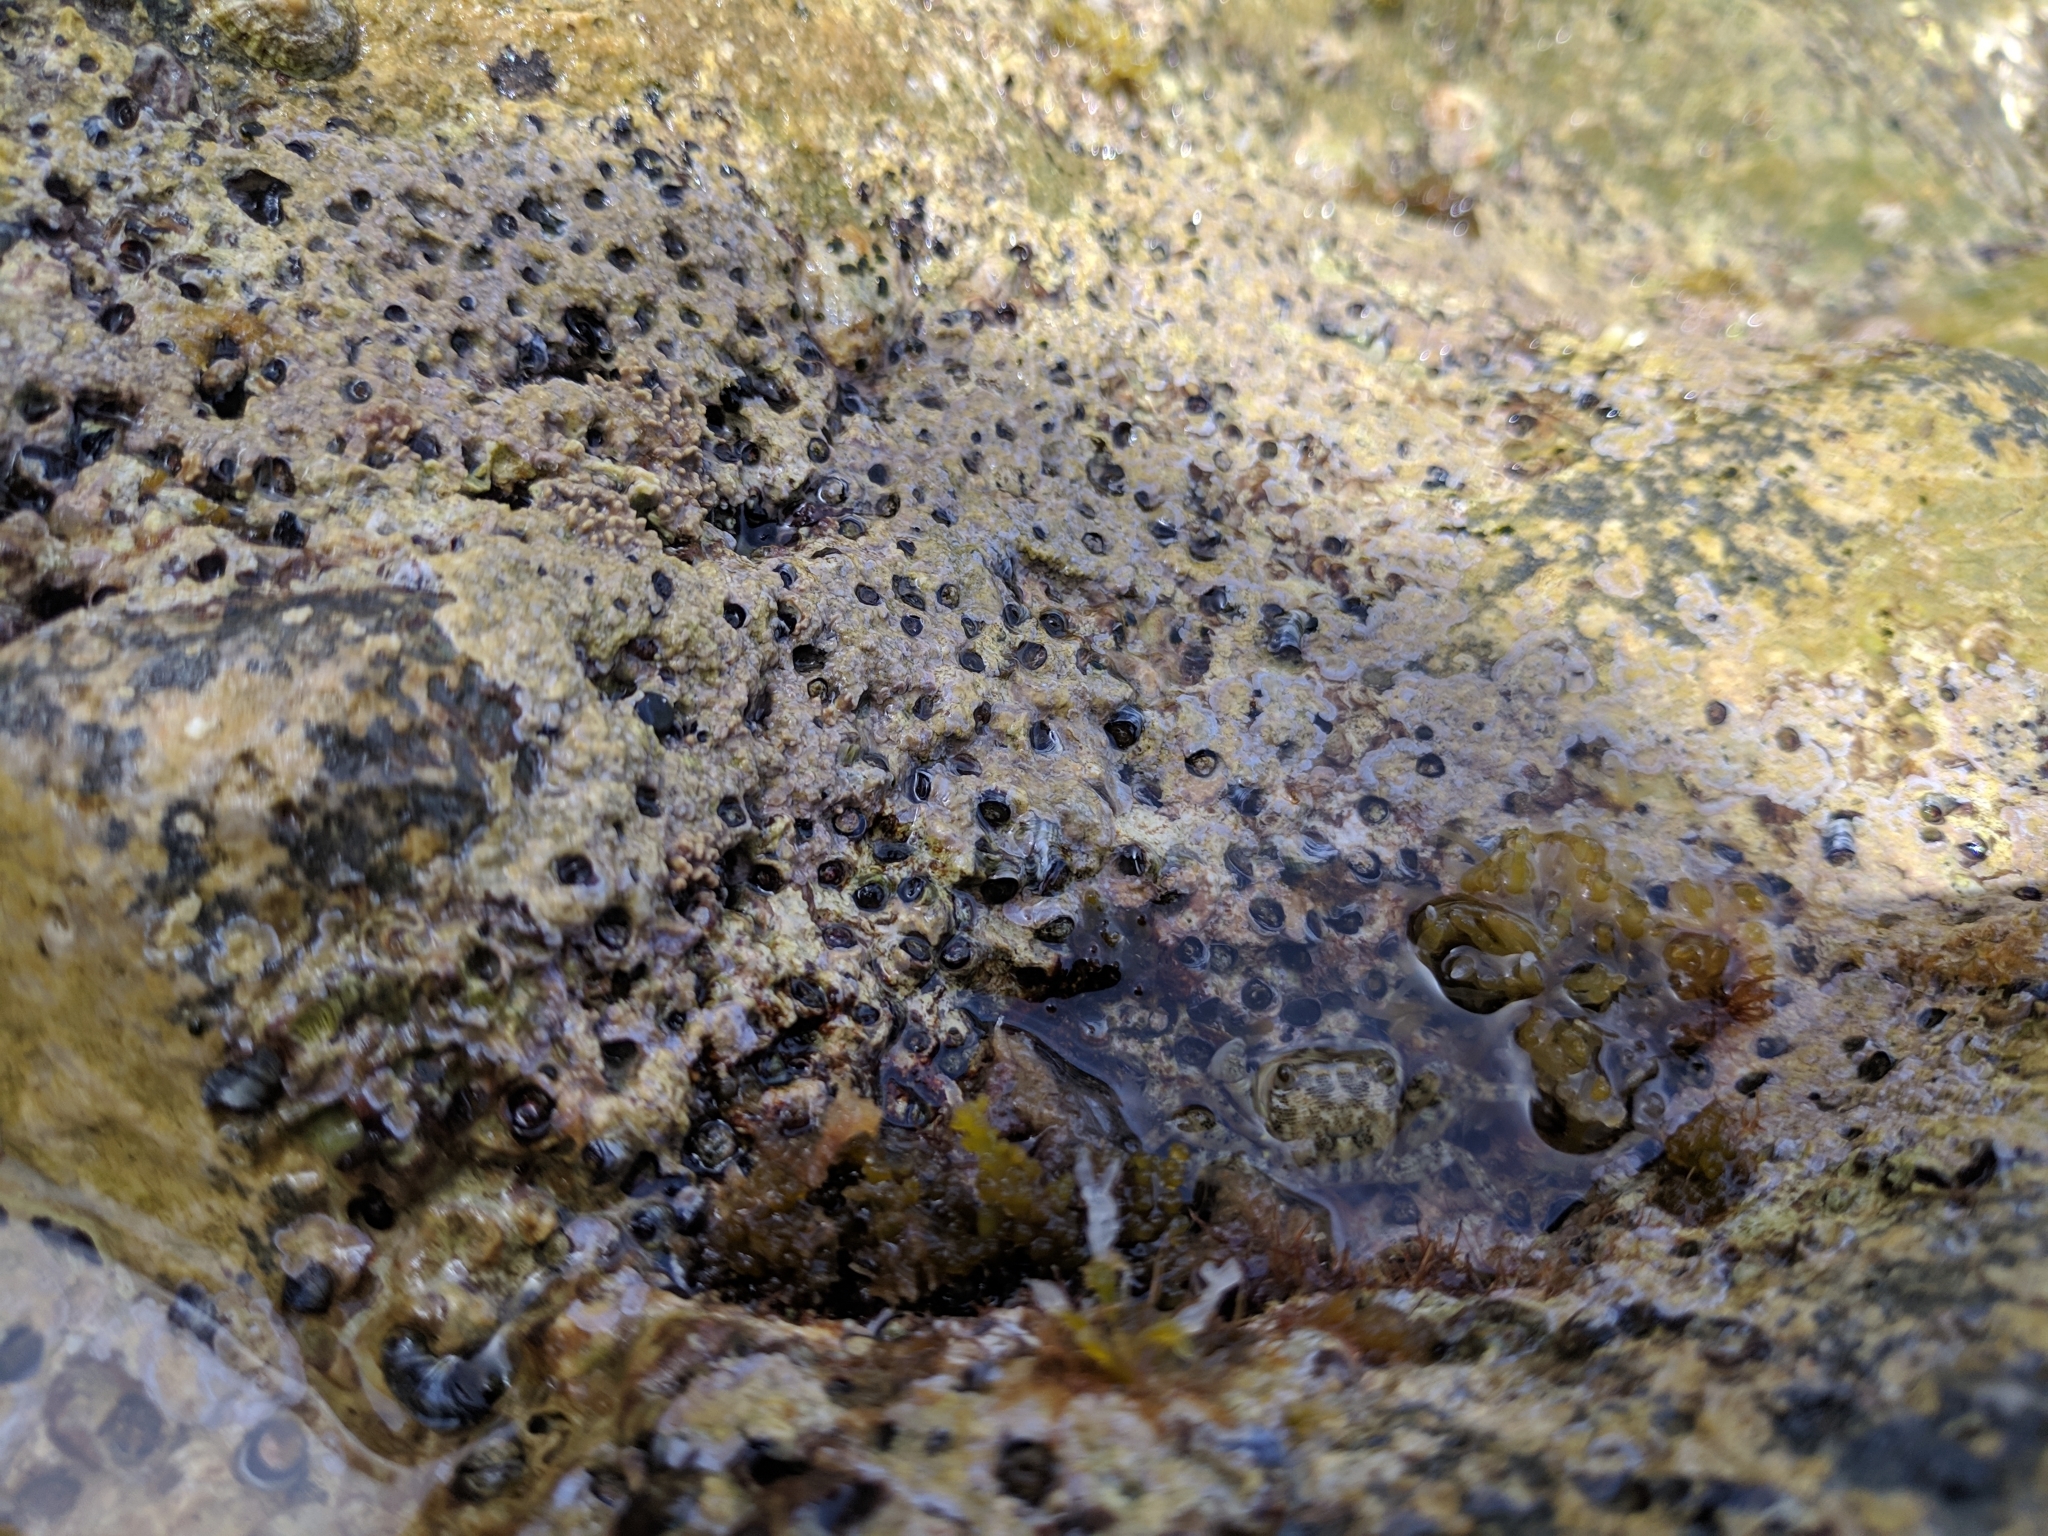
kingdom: Animalia
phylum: Arthropoda
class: Malacostraca
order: Decapoda
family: Grapsidae
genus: Pachygrapsus
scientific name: Pachygrapsus marmoratus
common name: Marbled rock crab
